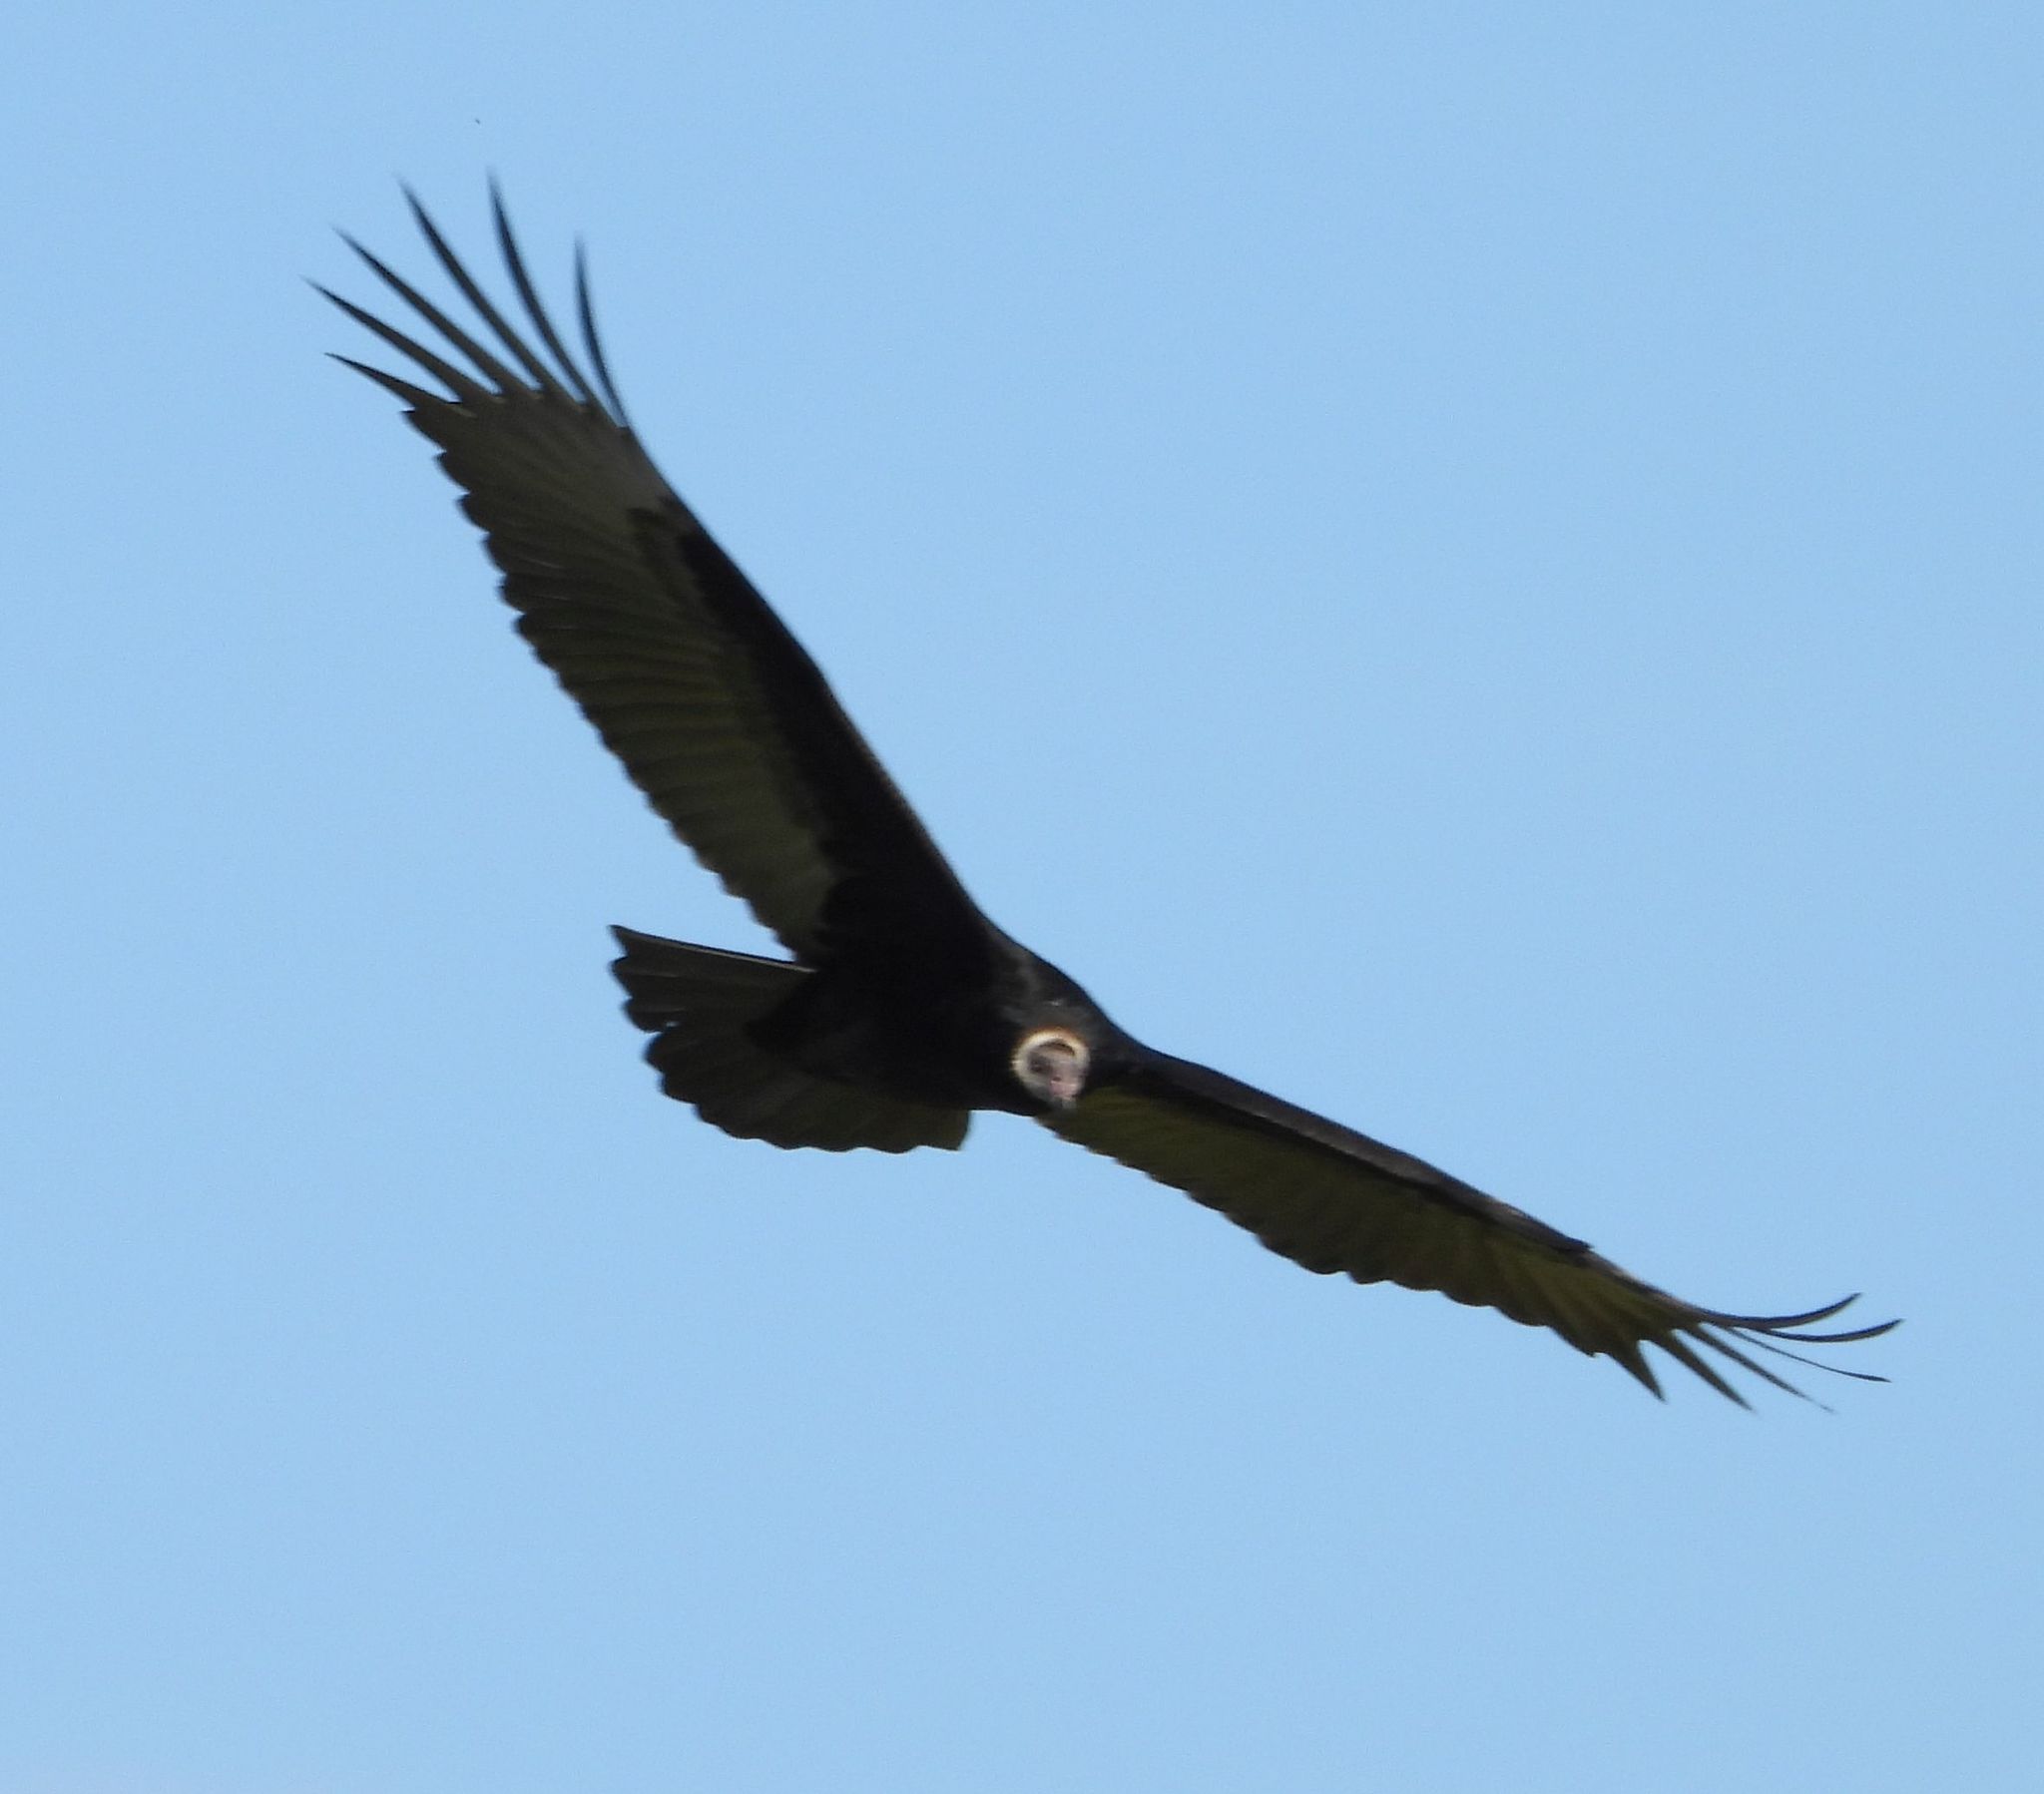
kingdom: Animalia
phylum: Chordata
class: Aves
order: Accipitriformes
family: Cathartidae
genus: Cathartes
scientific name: Cathartes aura
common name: Turkey vulture
